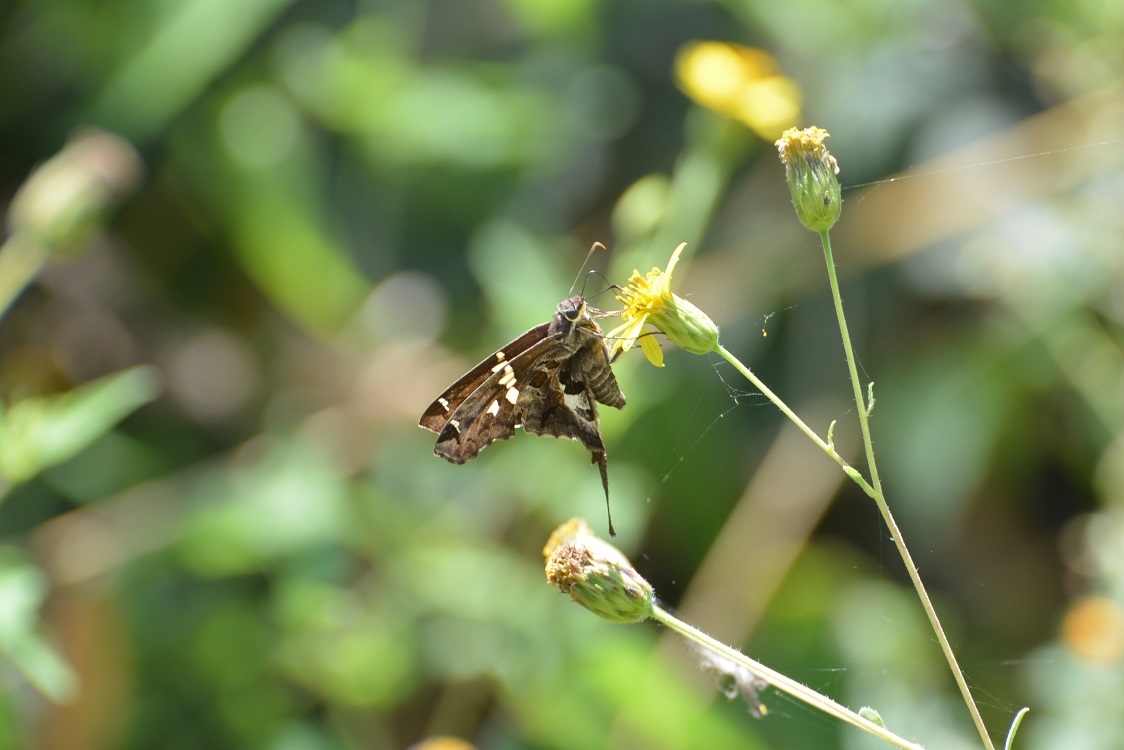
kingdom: Animalia
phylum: Arthropoda
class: Insecta
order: Lepidoptera
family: Hesperiidae
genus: Chioides
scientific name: Chioides zilpa
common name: Zilpa longtail
